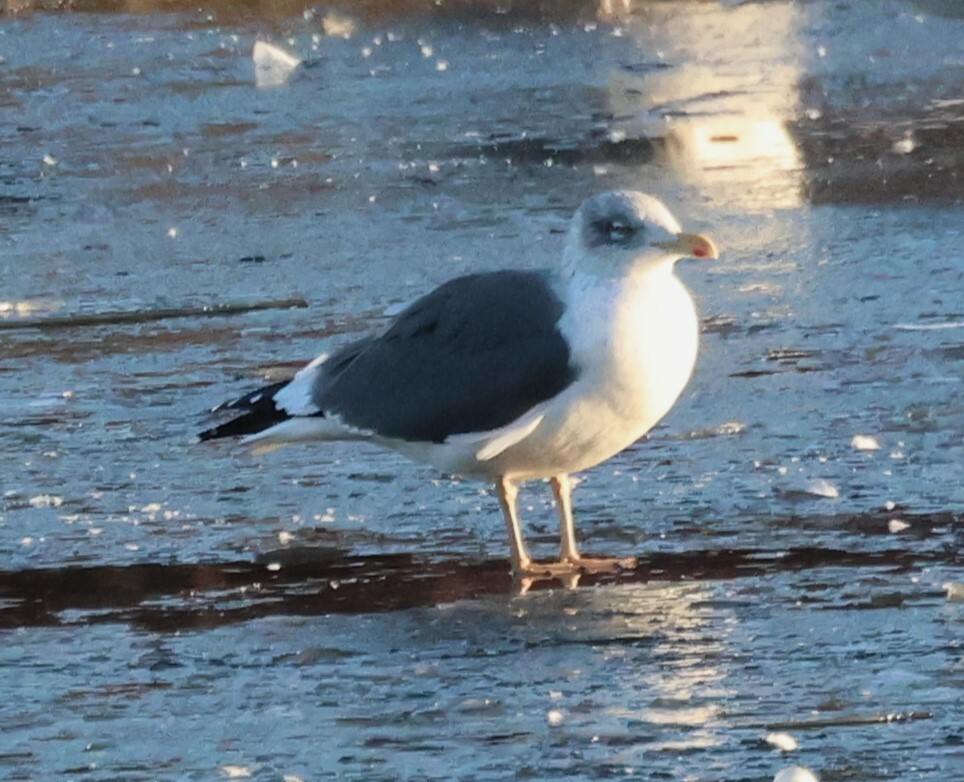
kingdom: Animalia
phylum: Chordata
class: Aves
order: Charadriiformes
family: Laridae
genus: Larus
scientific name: Larus fuscus
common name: Lesser black-backed gull
